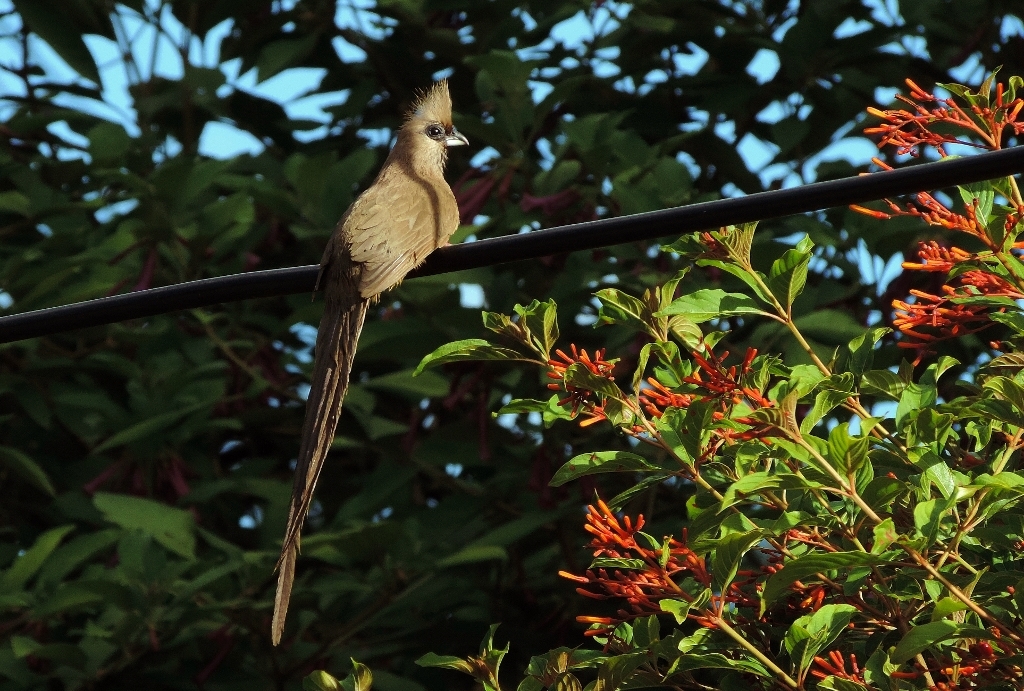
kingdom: Animalia
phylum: Chordata
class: Aves
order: Coliiformes
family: Coliidae
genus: Colius
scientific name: Colius striatus
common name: Speckled mousebird
